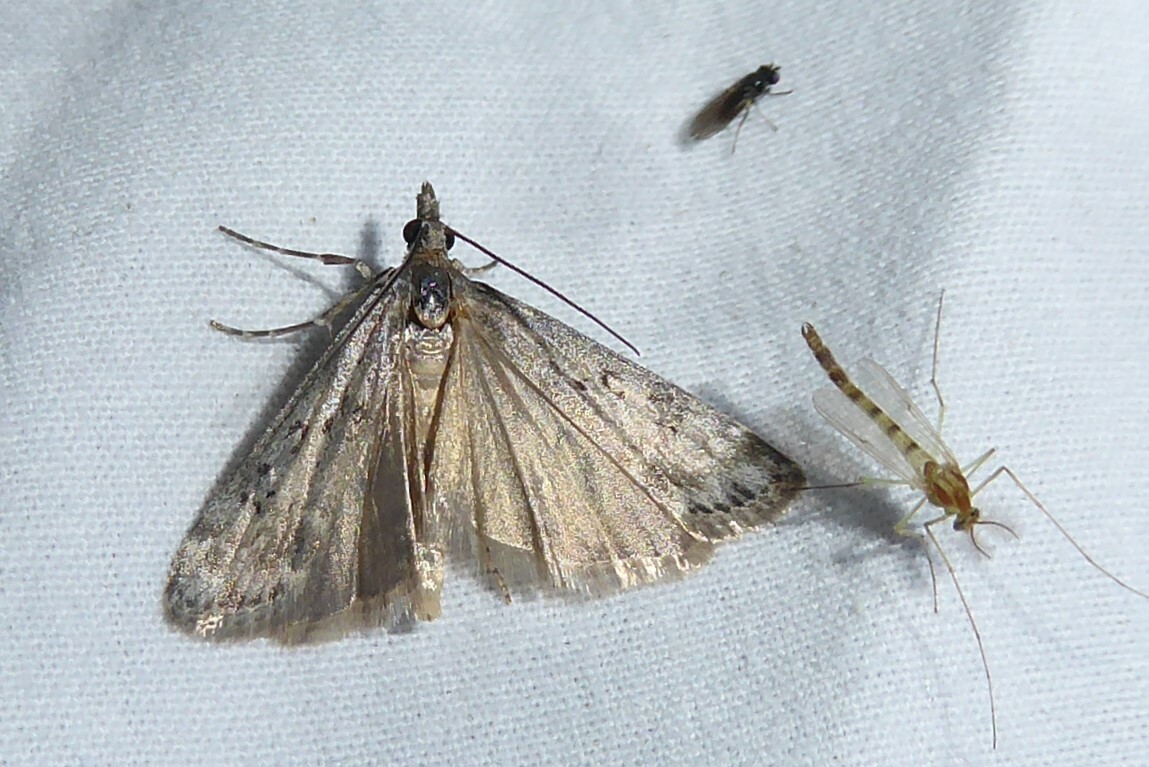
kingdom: Animalia
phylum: Arthropoda
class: Insecta
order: Lepidoptera
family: Crambidae
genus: Eudonia
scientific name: Eudonia leptalea
